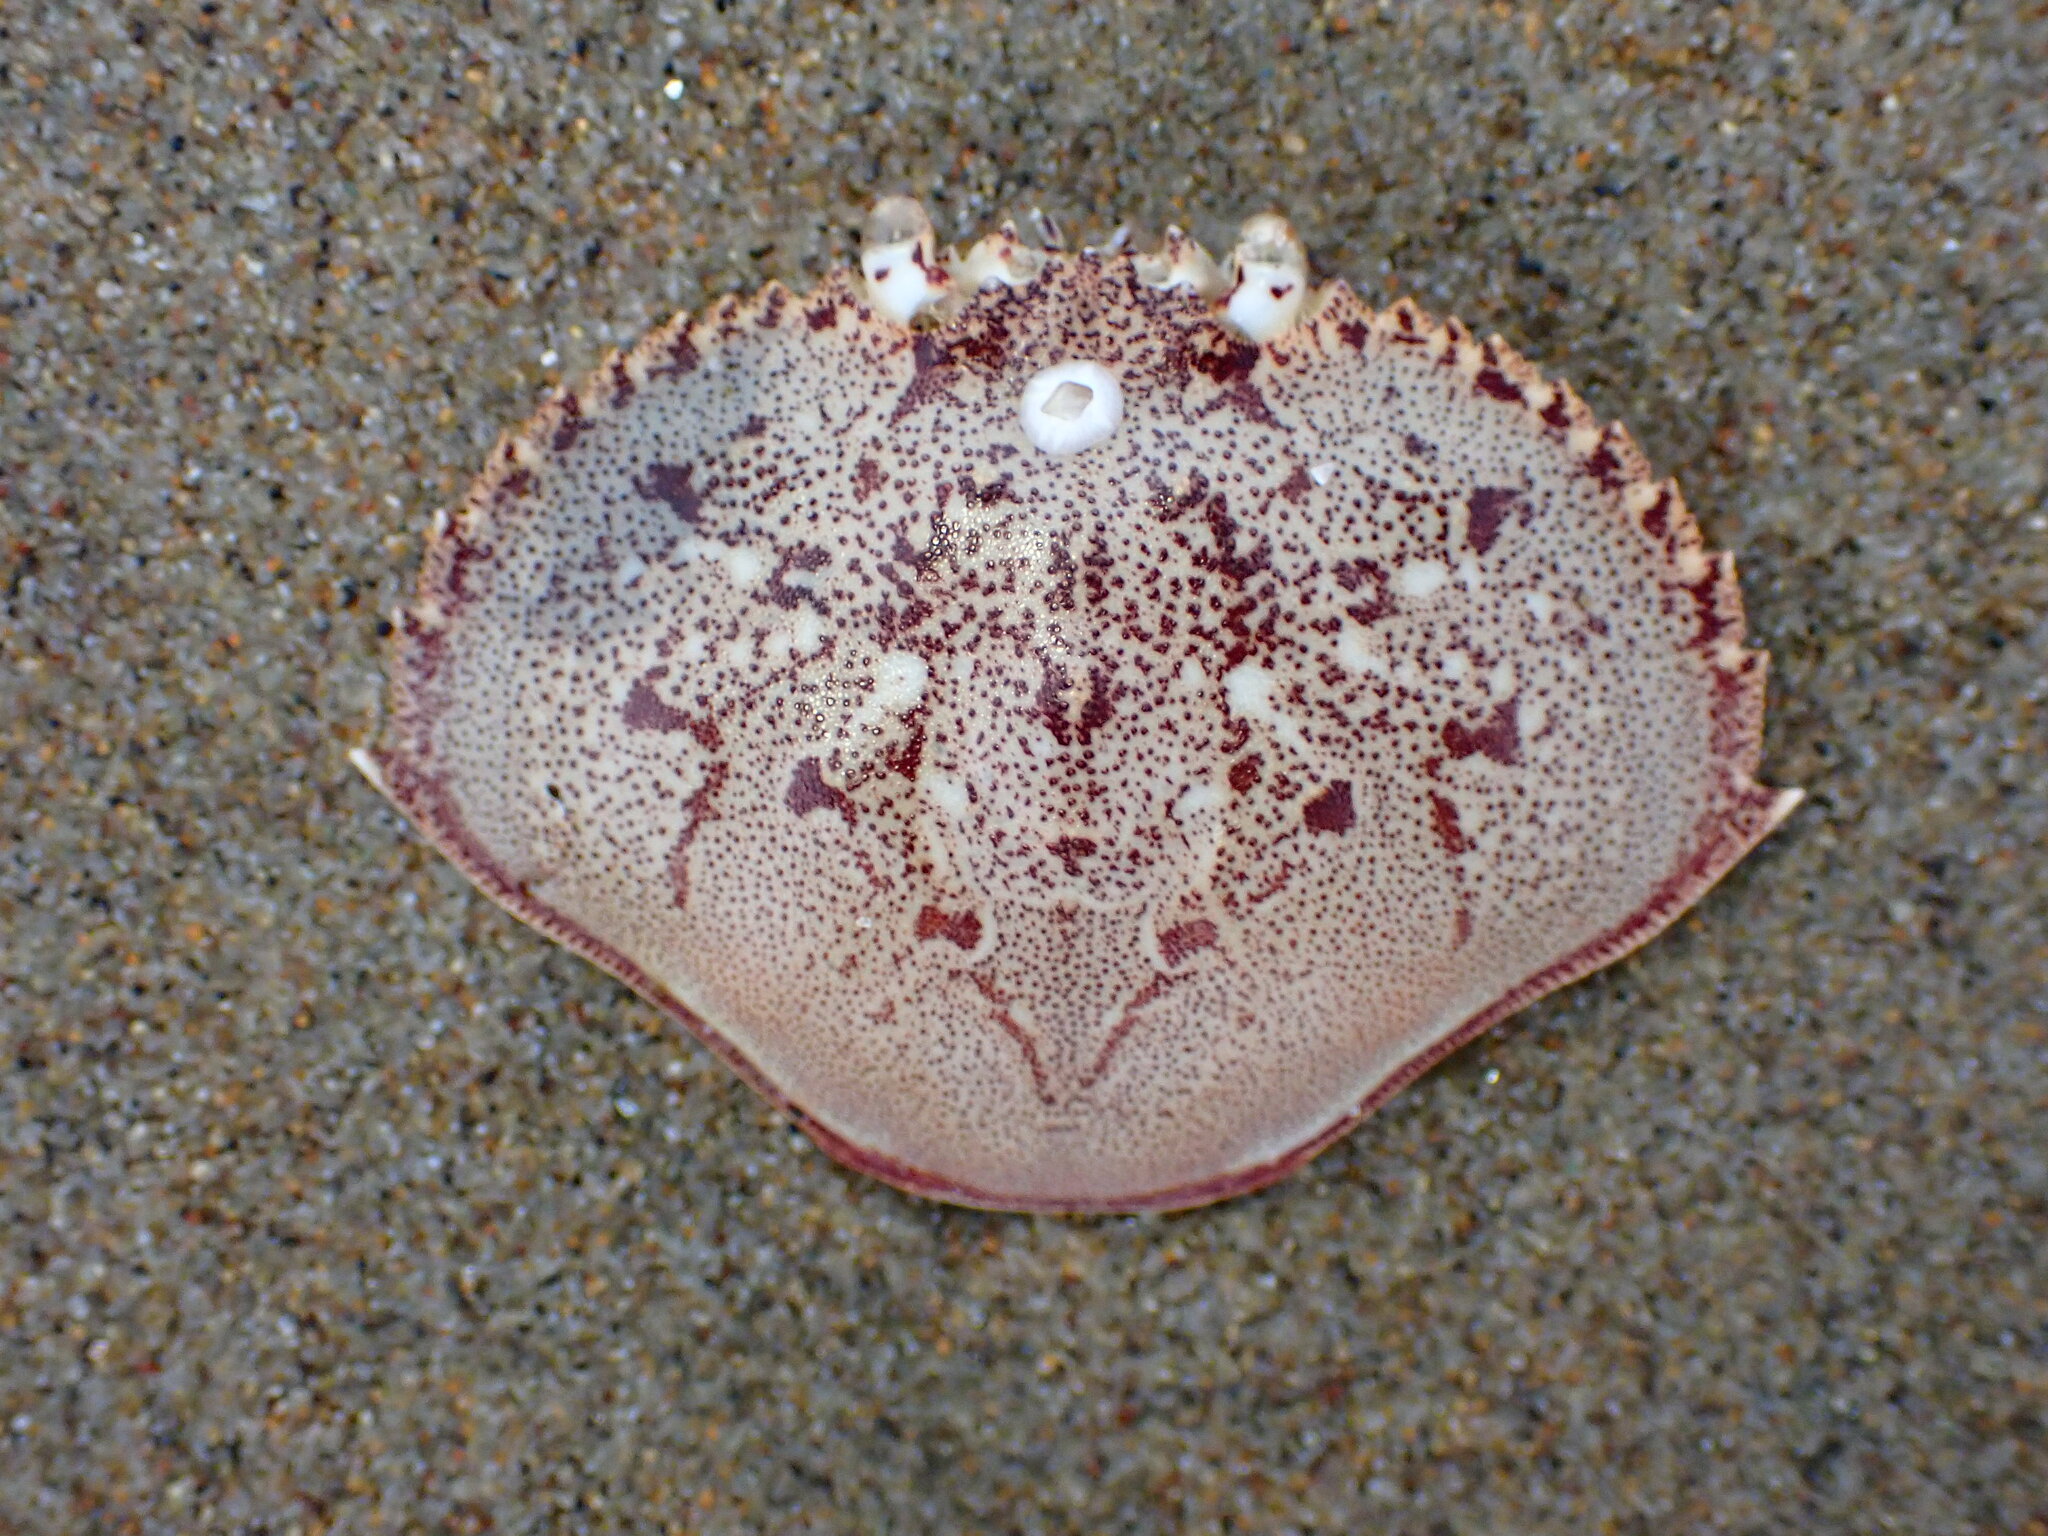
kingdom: Animalia
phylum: Arthropoda
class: Malacostraca
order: Decapoda
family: Cancridae
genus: Metacarcinus
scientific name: Metacarcinus magister
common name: Californian crab
